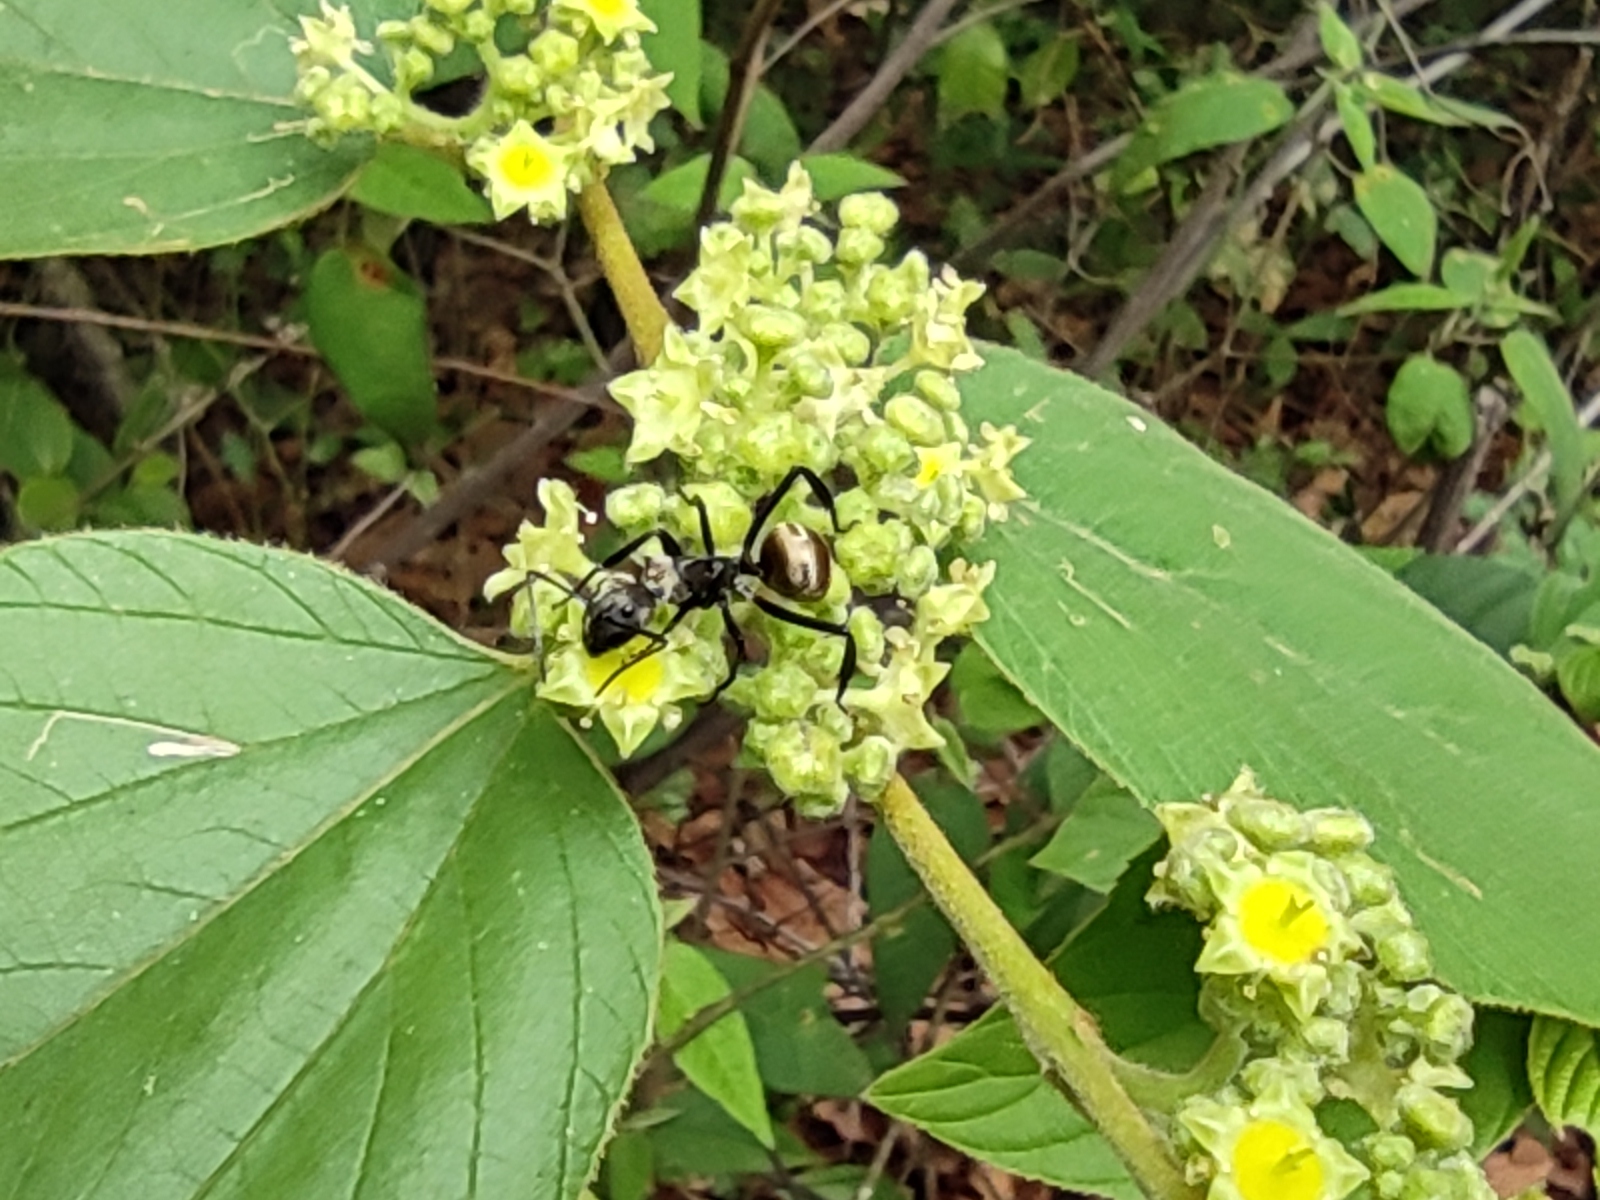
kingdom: Animalia
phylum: Arthropoda
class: Insecta
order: Hymenoptera
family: Formicidae
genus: Camponotus
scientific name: Camponotus sericeiventris
